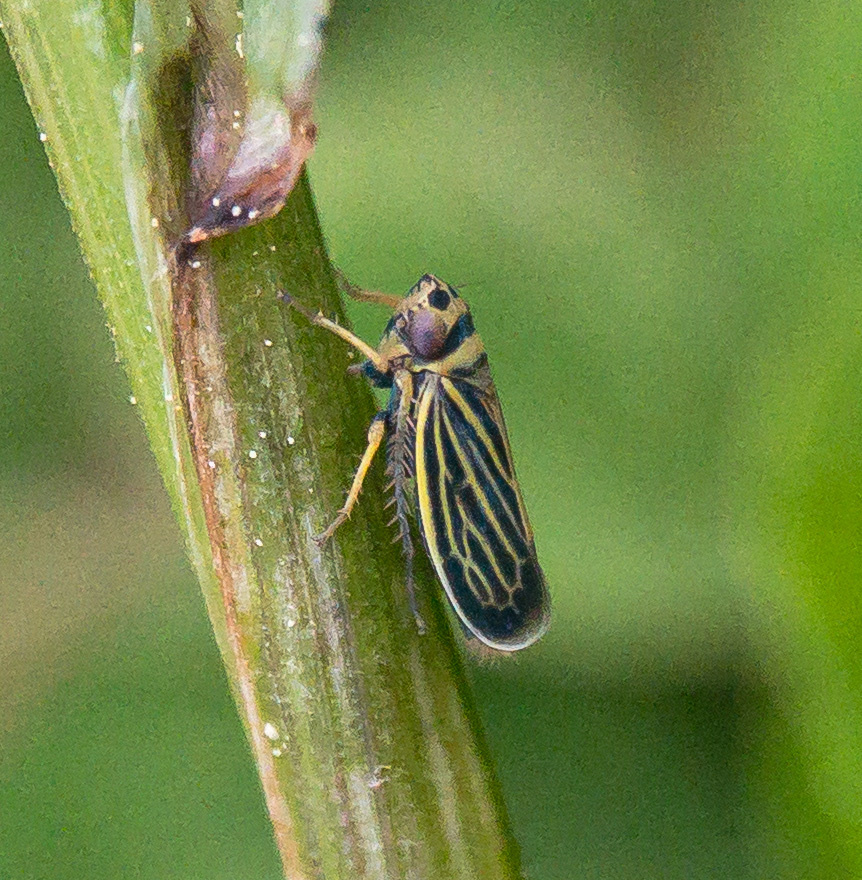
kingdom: Animalia
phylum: Arthropoda
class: Insecta
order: Hemiptera
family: Cicadellidae
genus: Amblysellus
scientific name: Amblysellus curtisii
